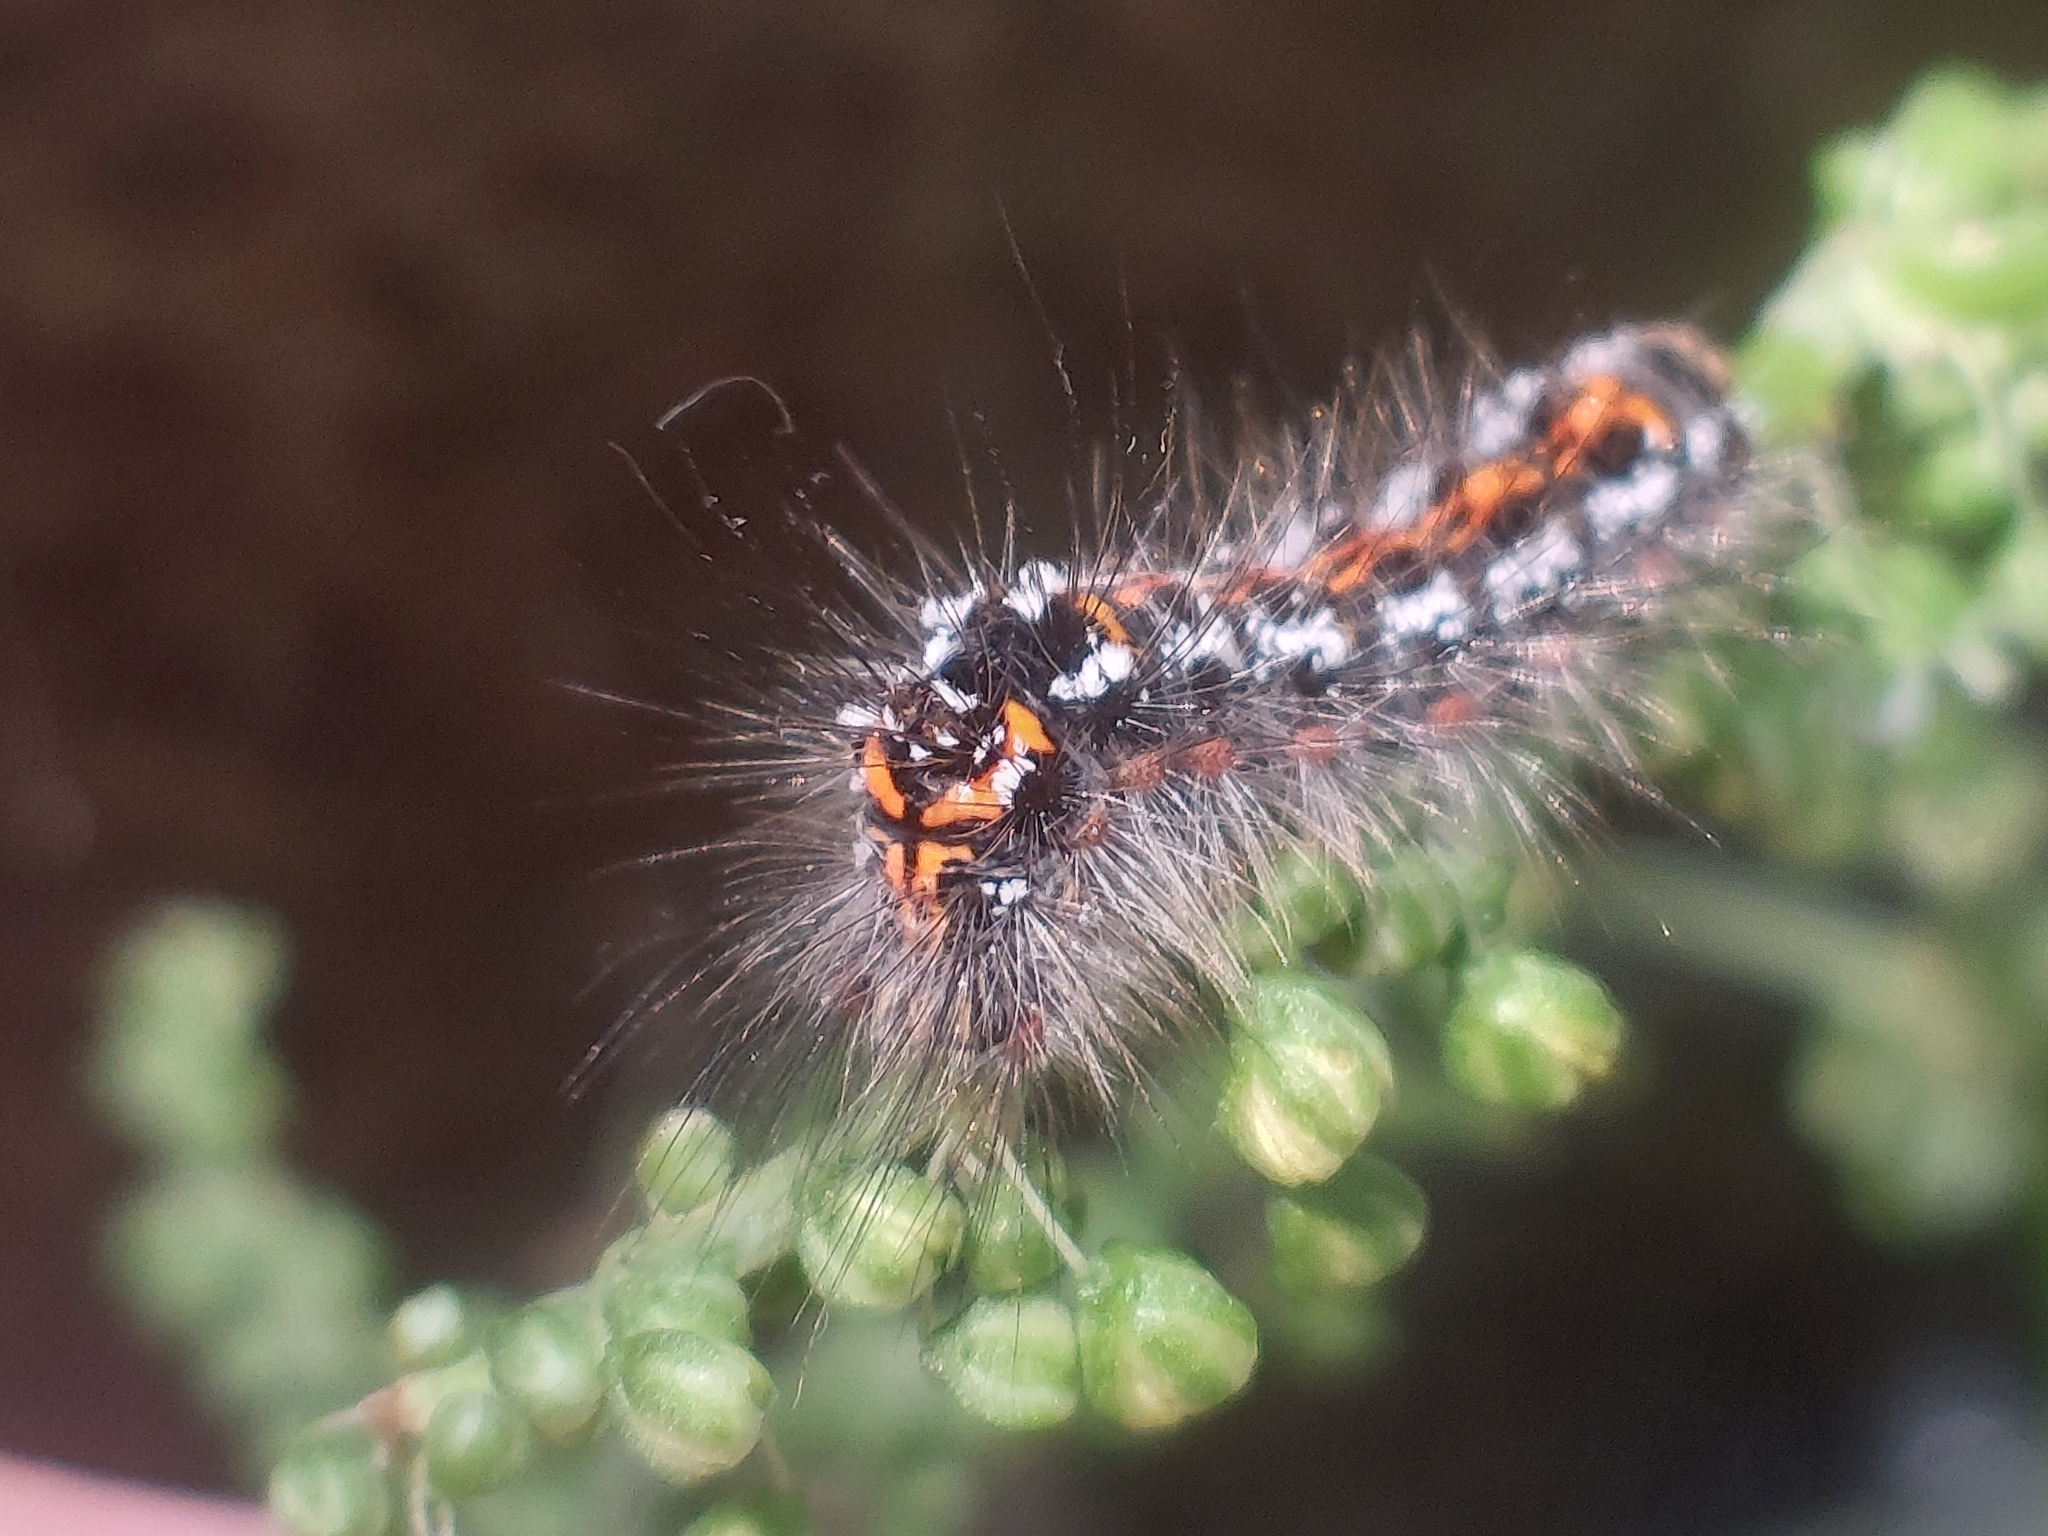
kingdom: Animalia
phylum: Arthropoda
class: Insecta
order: Lepidoptera
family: Erebidae
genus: Sphrageidus
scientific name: Sphrageidus similis
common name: Yellow-tail
